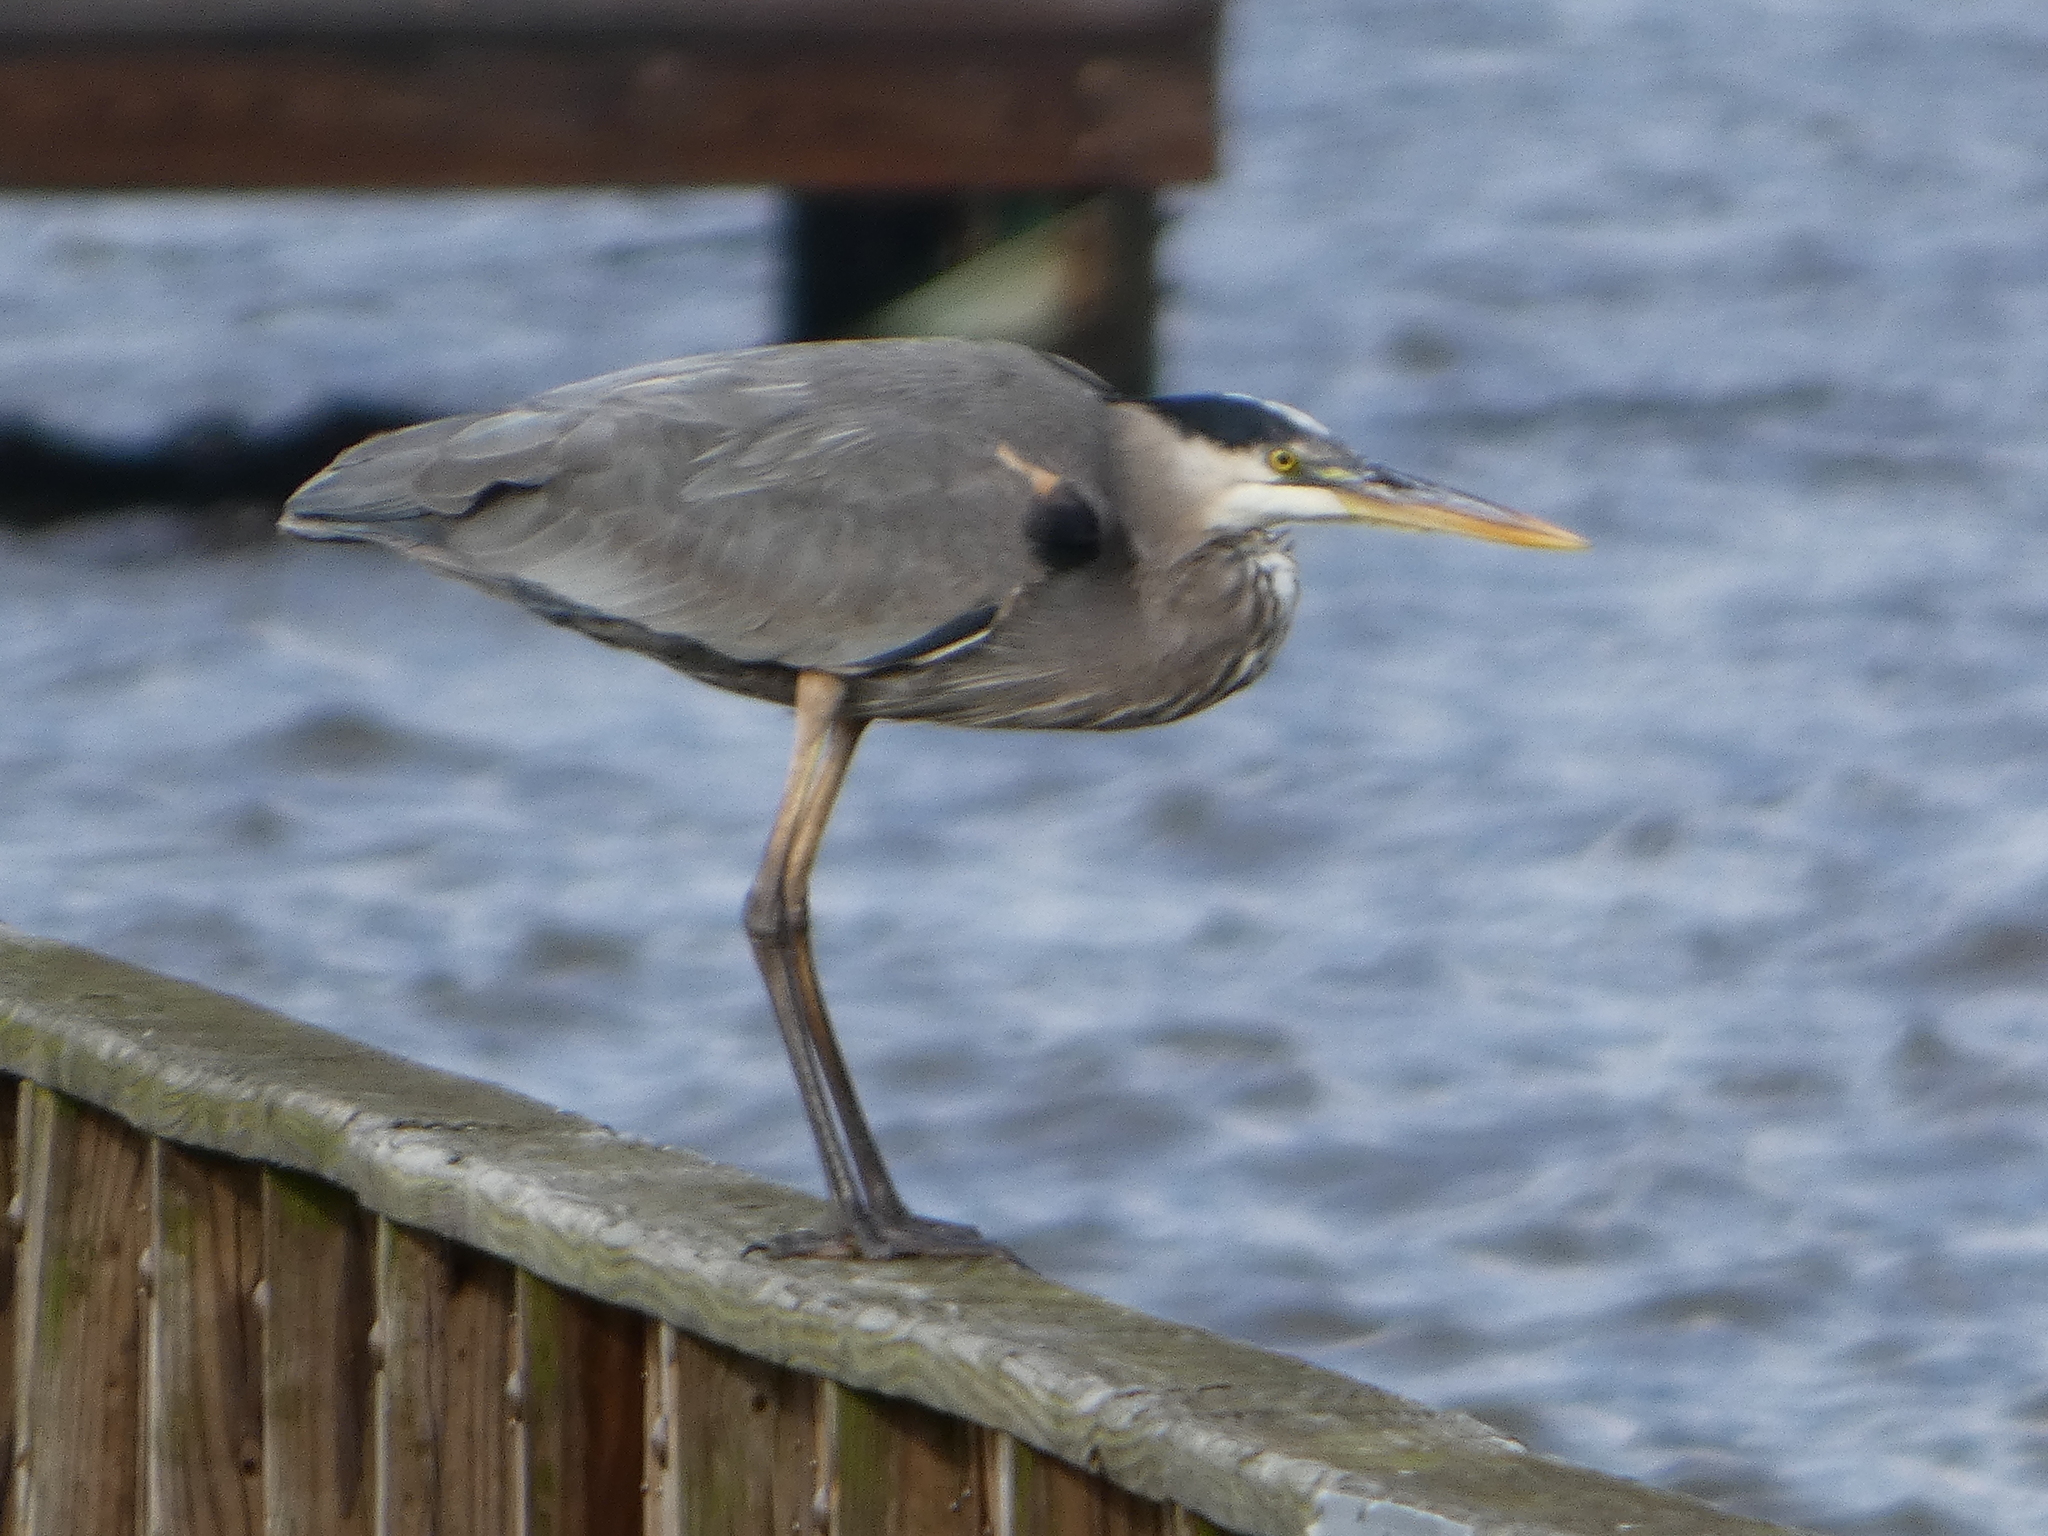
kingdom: Animalia
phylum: Chordata
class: Aves
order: Pelecaniformes
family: Ardeidae
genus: Ardea
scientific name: Ardea herodias
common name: Great blue heron
